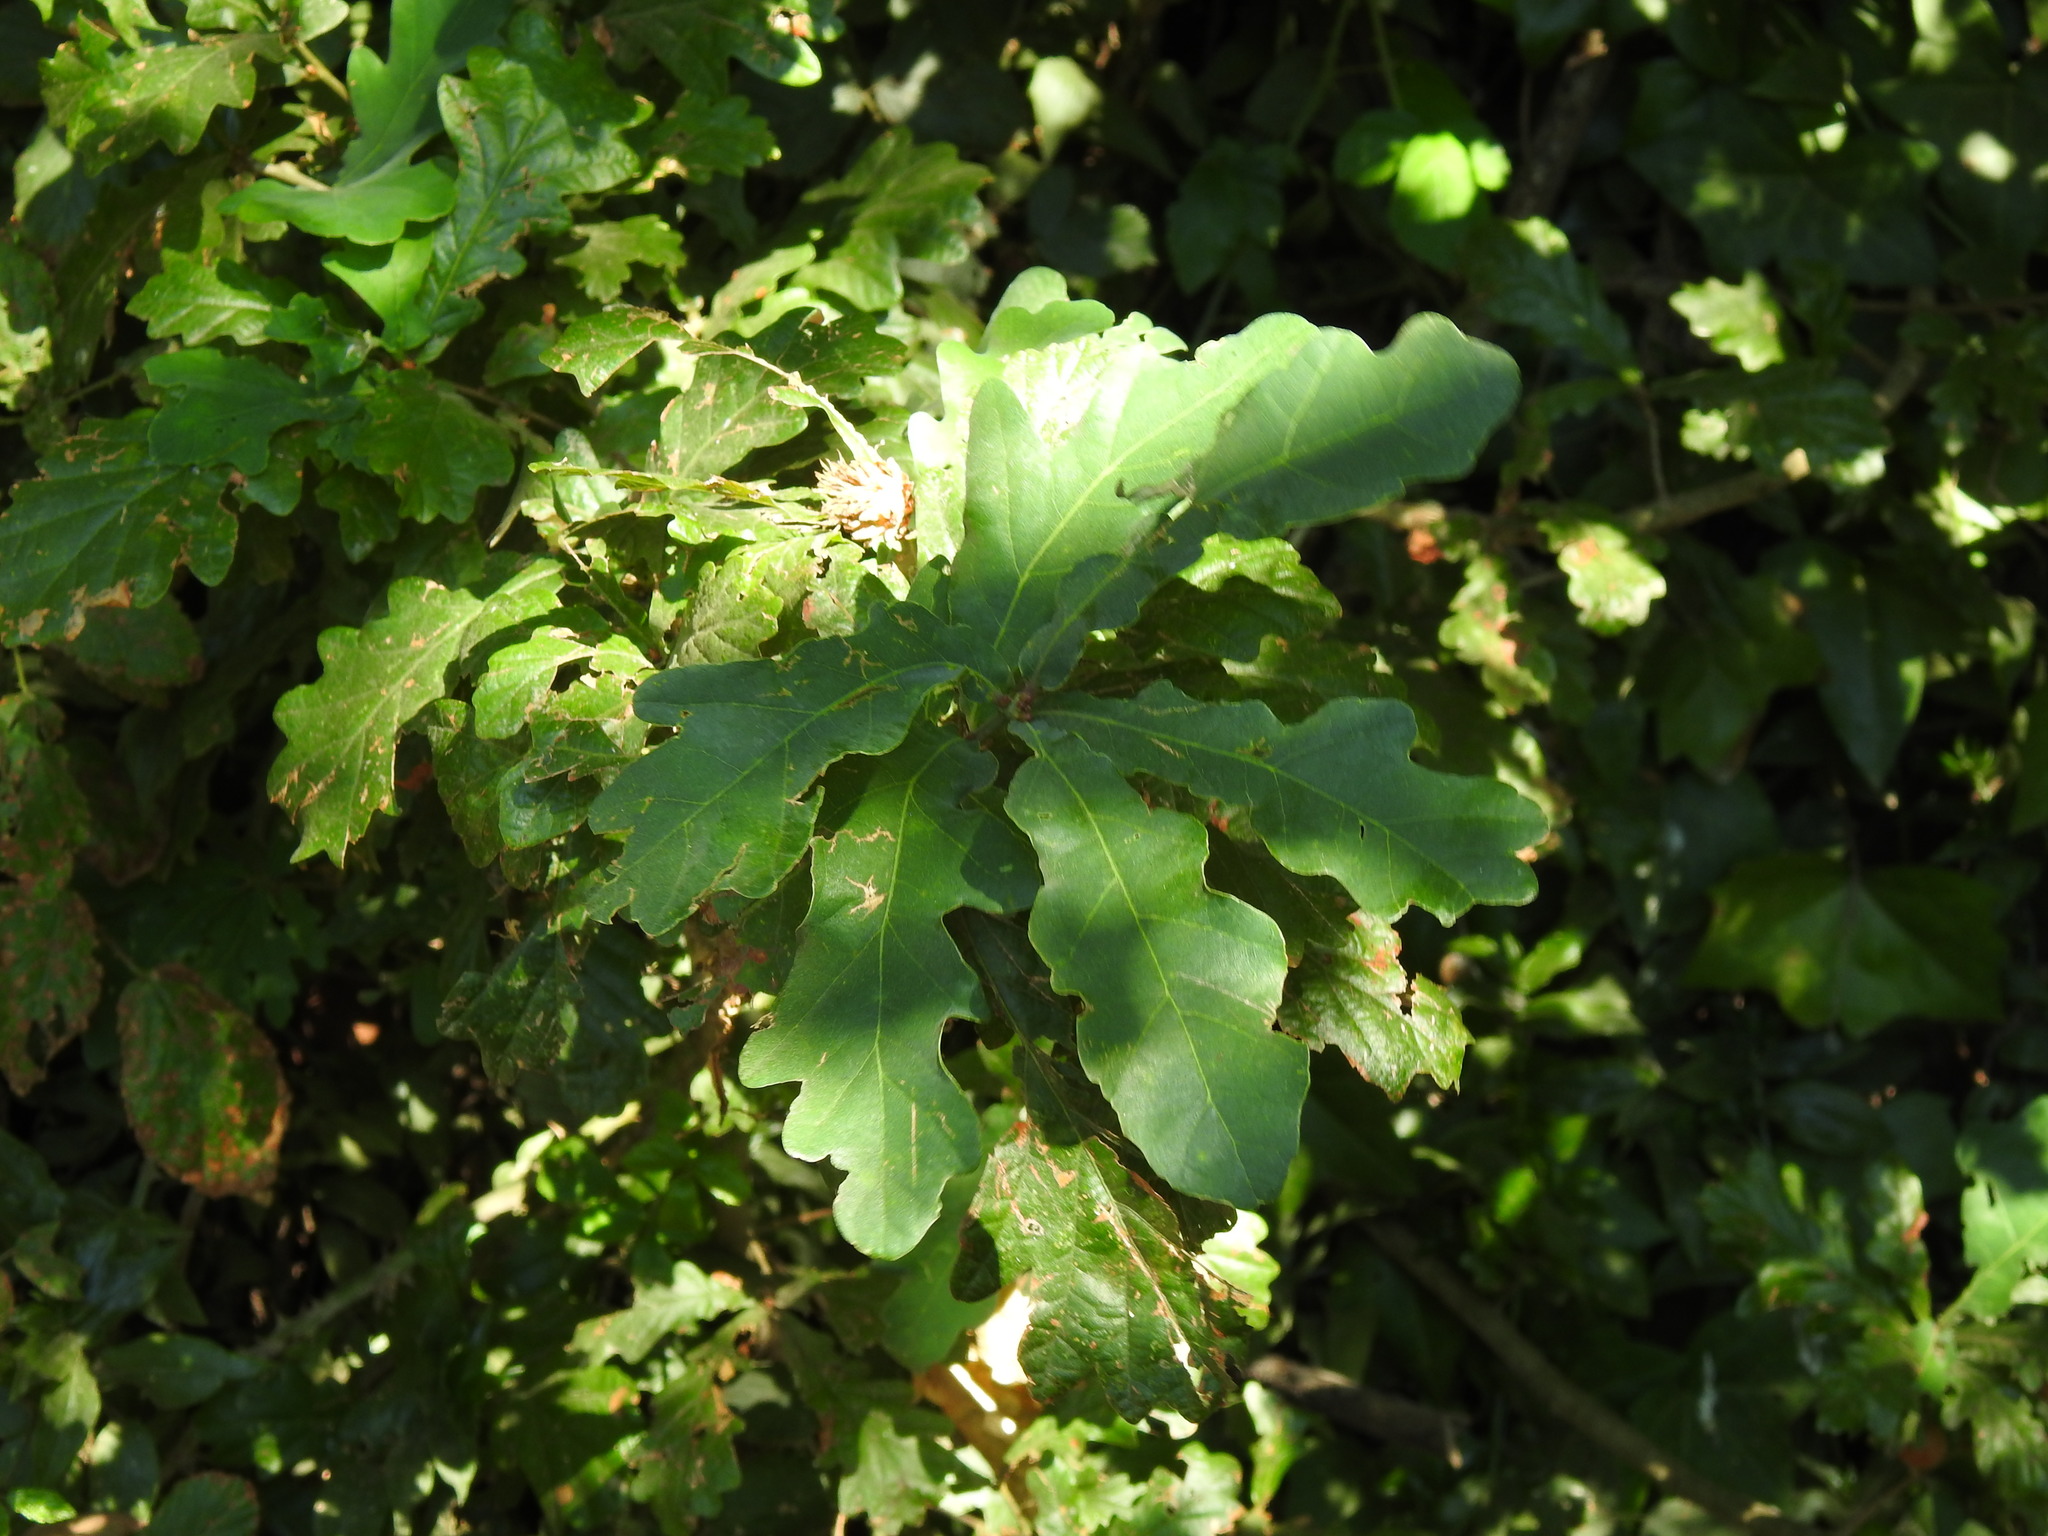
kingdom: Plantae
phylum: Tracheophyta
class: Magnoliopsida
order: Fagales
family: Fagaceae
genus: Quercus
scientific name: Quercus orocantabrica
